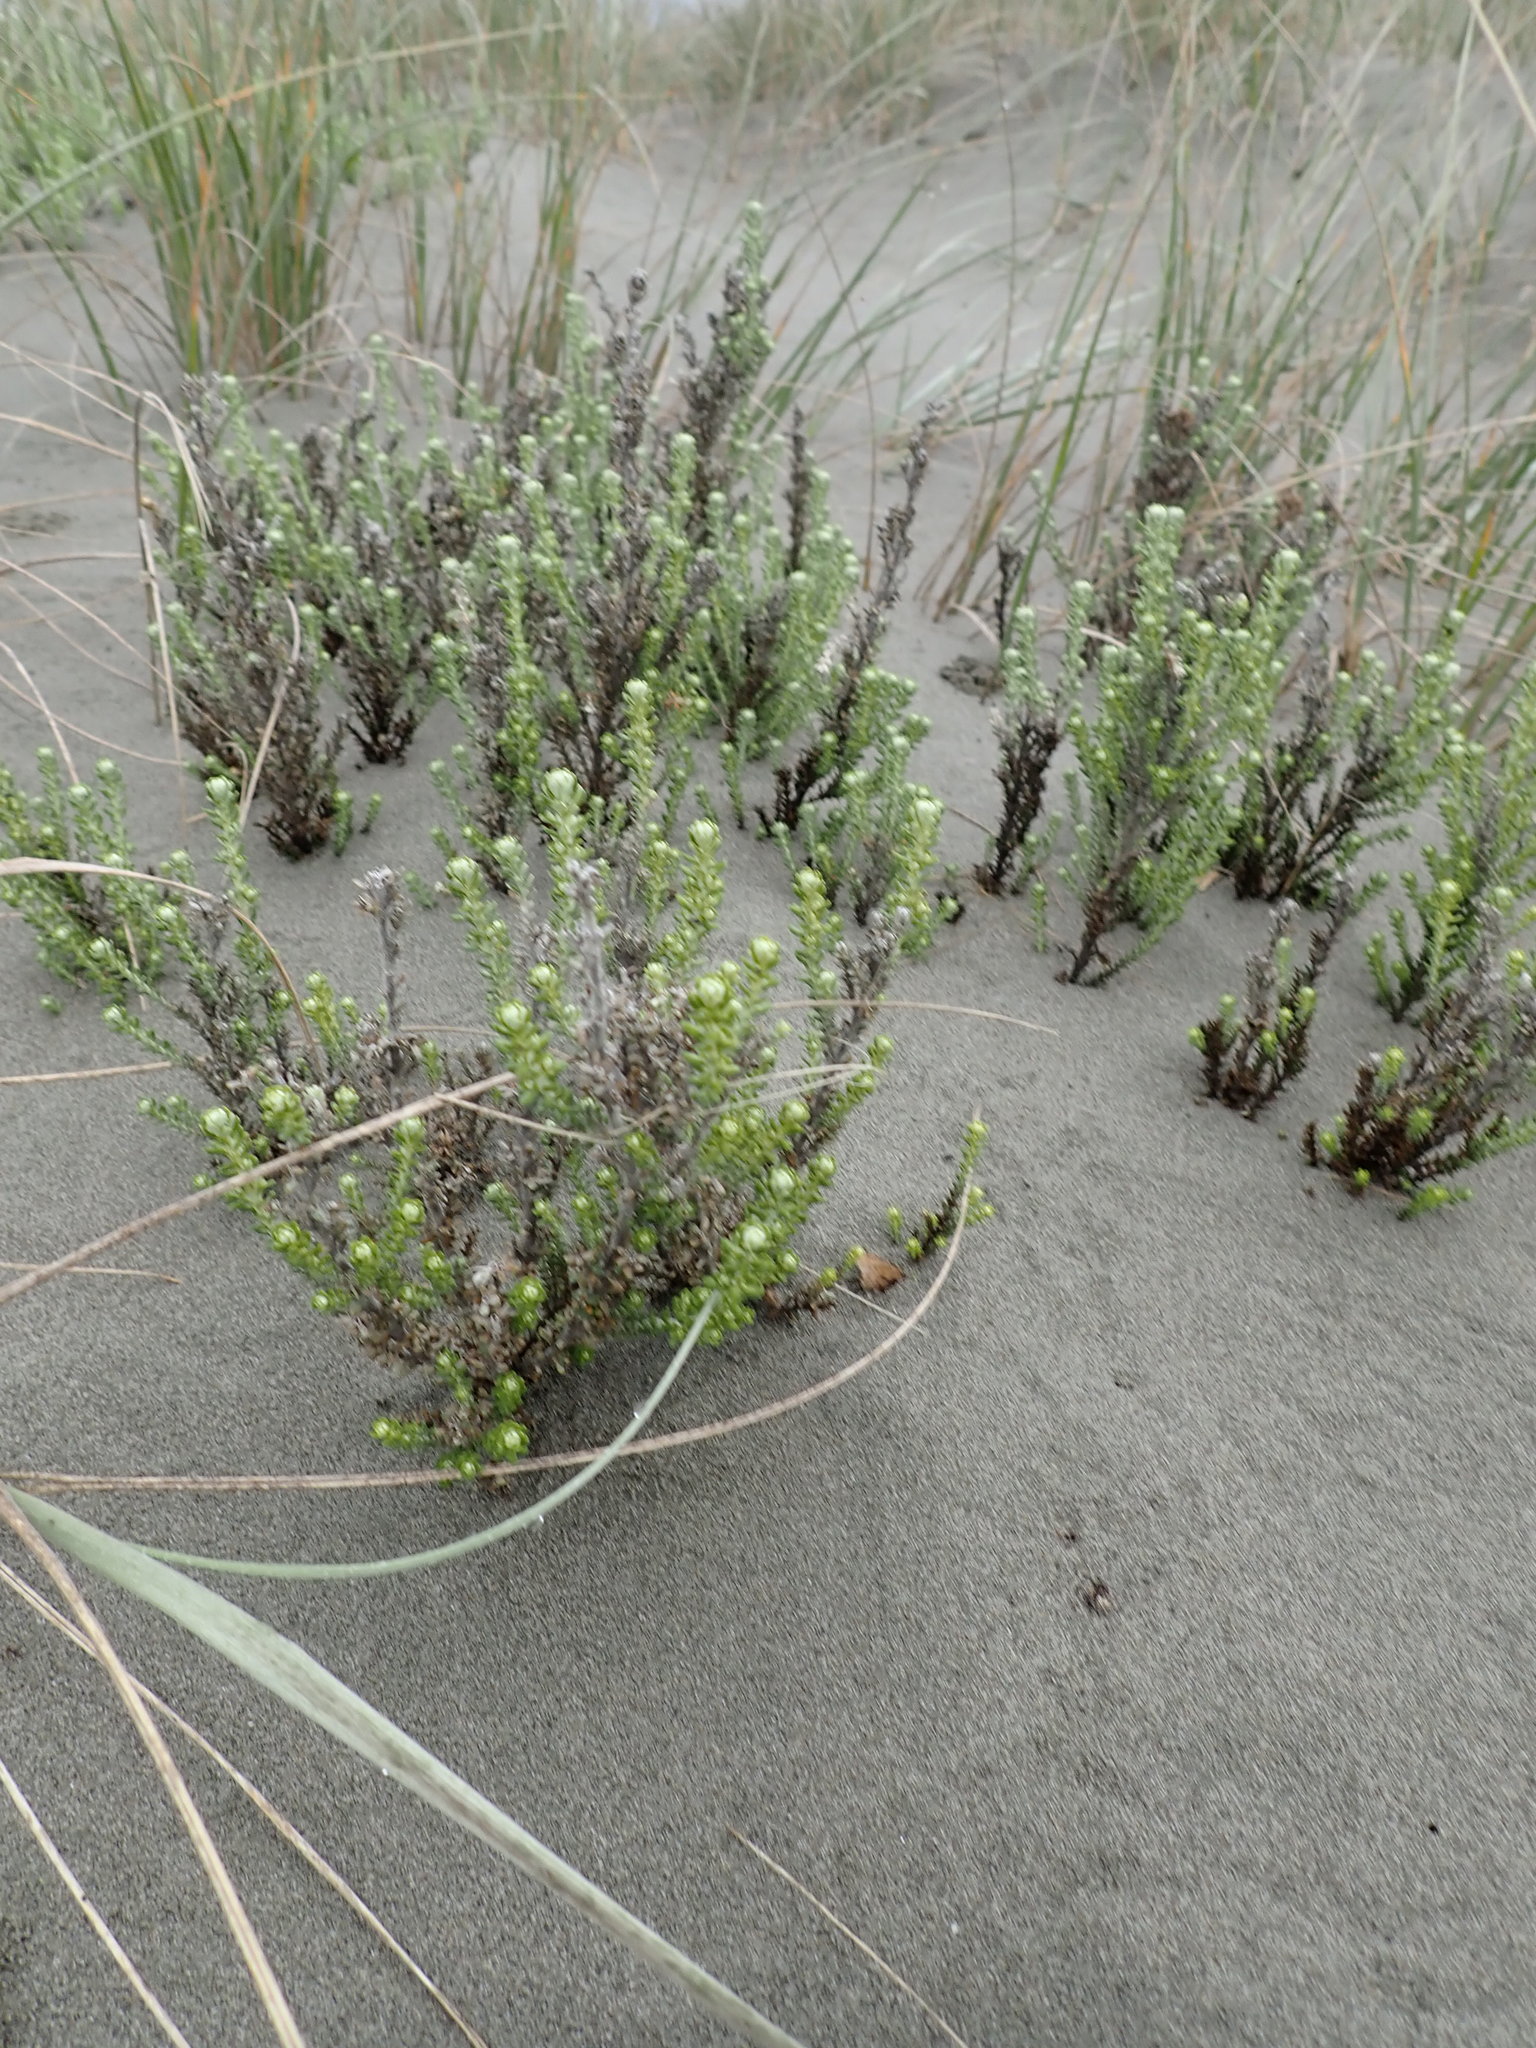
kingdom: Plantae
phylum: Tracheophyta
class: Magnoliopsida
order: Asterales
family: Asteraceae
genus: Ozothamnus
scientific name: Ozothamnus leptophyllus
